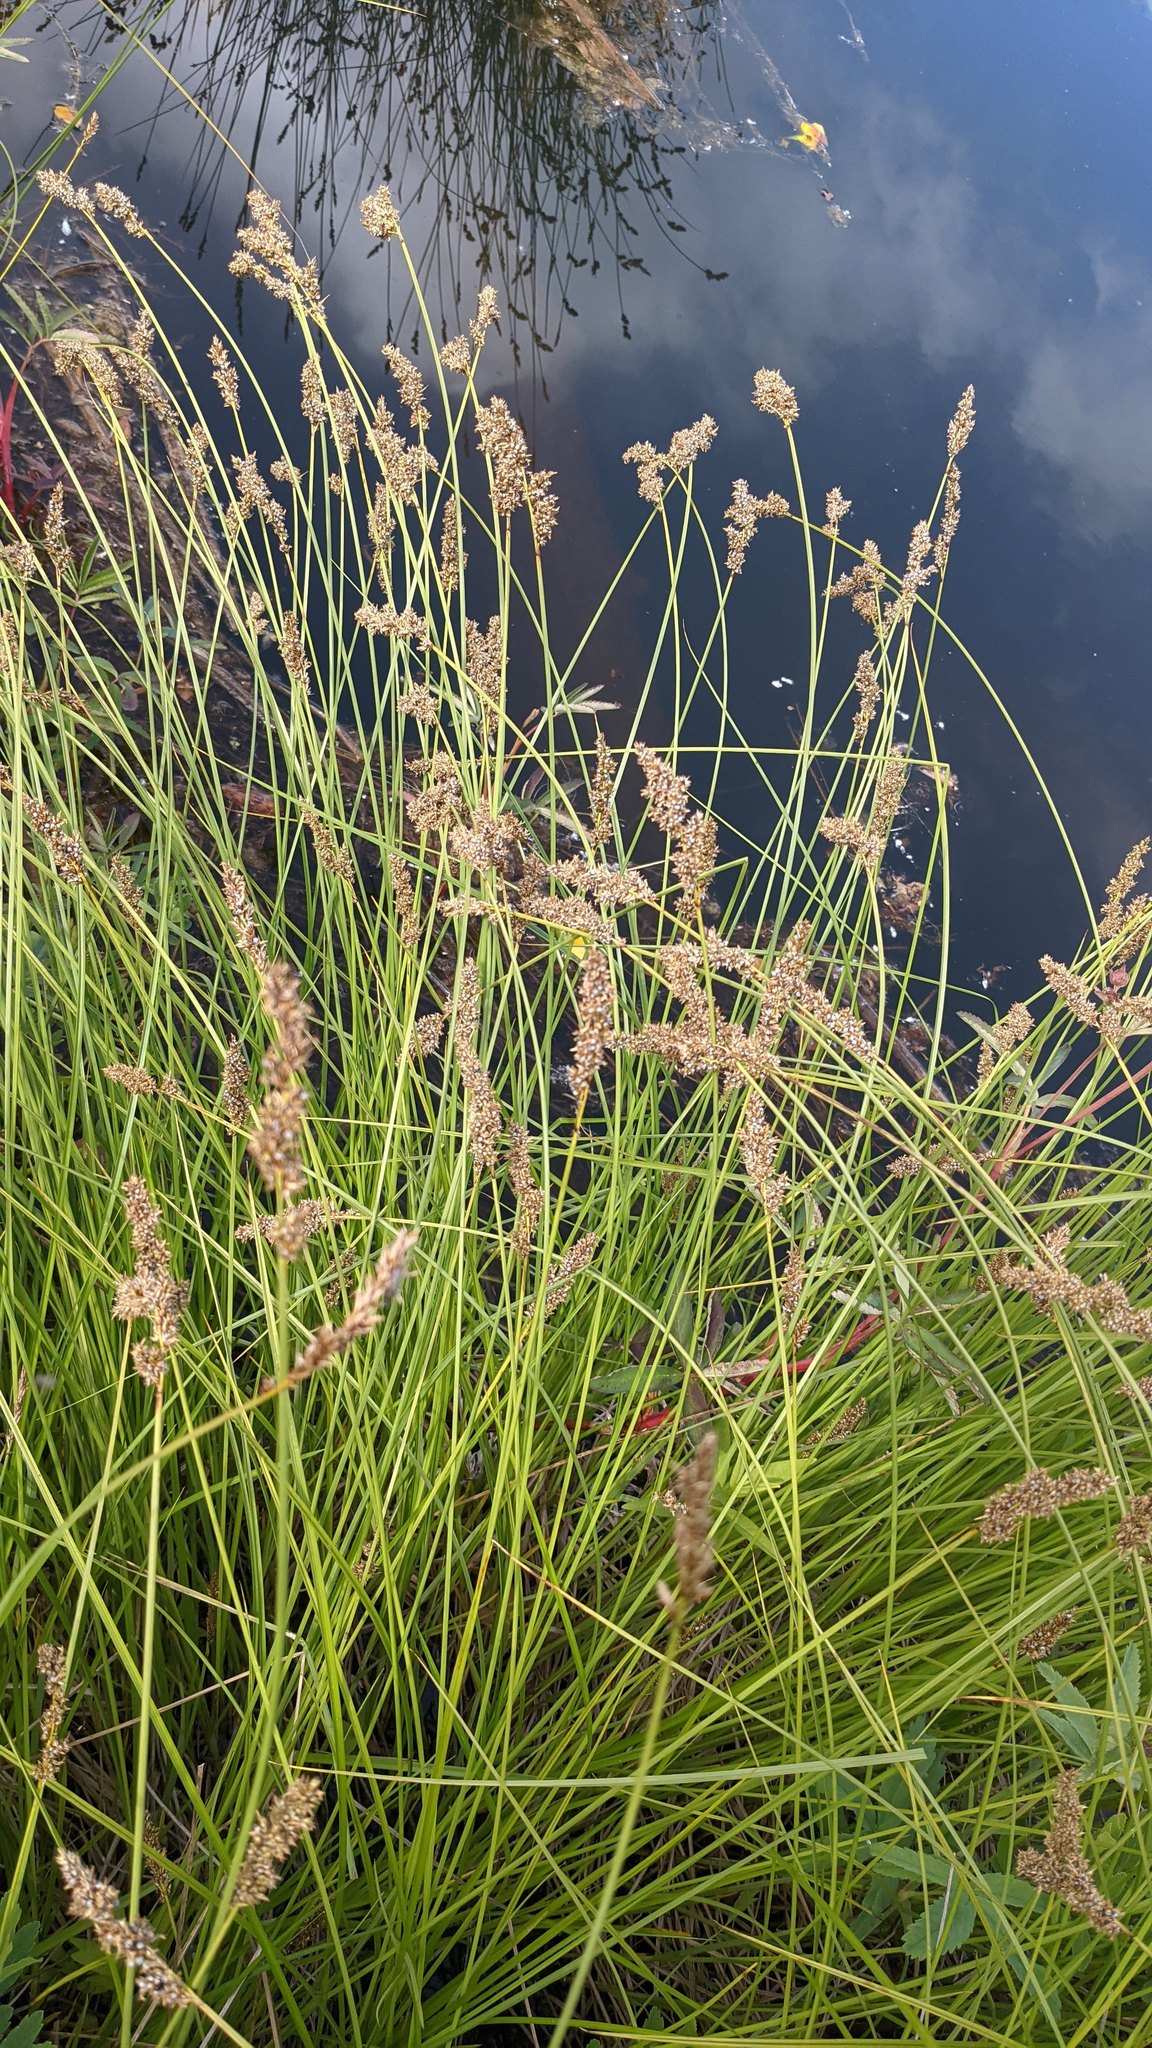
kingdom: Plantae
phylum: Tracheophyta
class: Liliopsida
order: Poales
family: Cyperaceae
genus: Carex
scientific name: Carex cusickii
